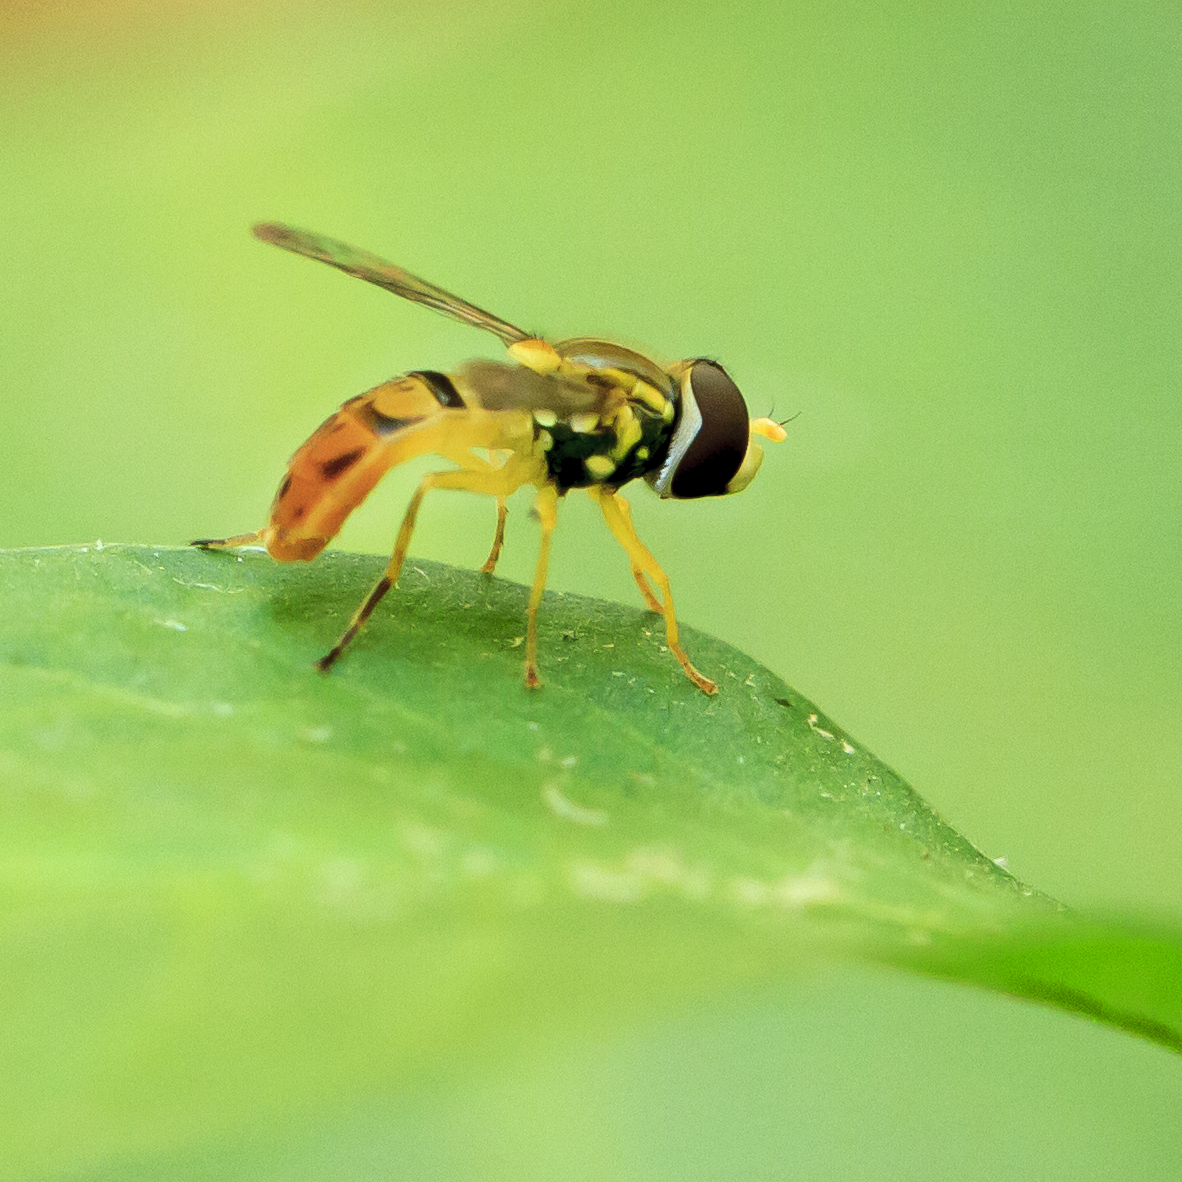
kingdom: Animalia
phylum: Arthropoda
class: Insecta
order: Diptera
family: Syrphidae
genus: Toxomerus
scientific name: Toxomerus marginatus
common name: Syrphid fly
